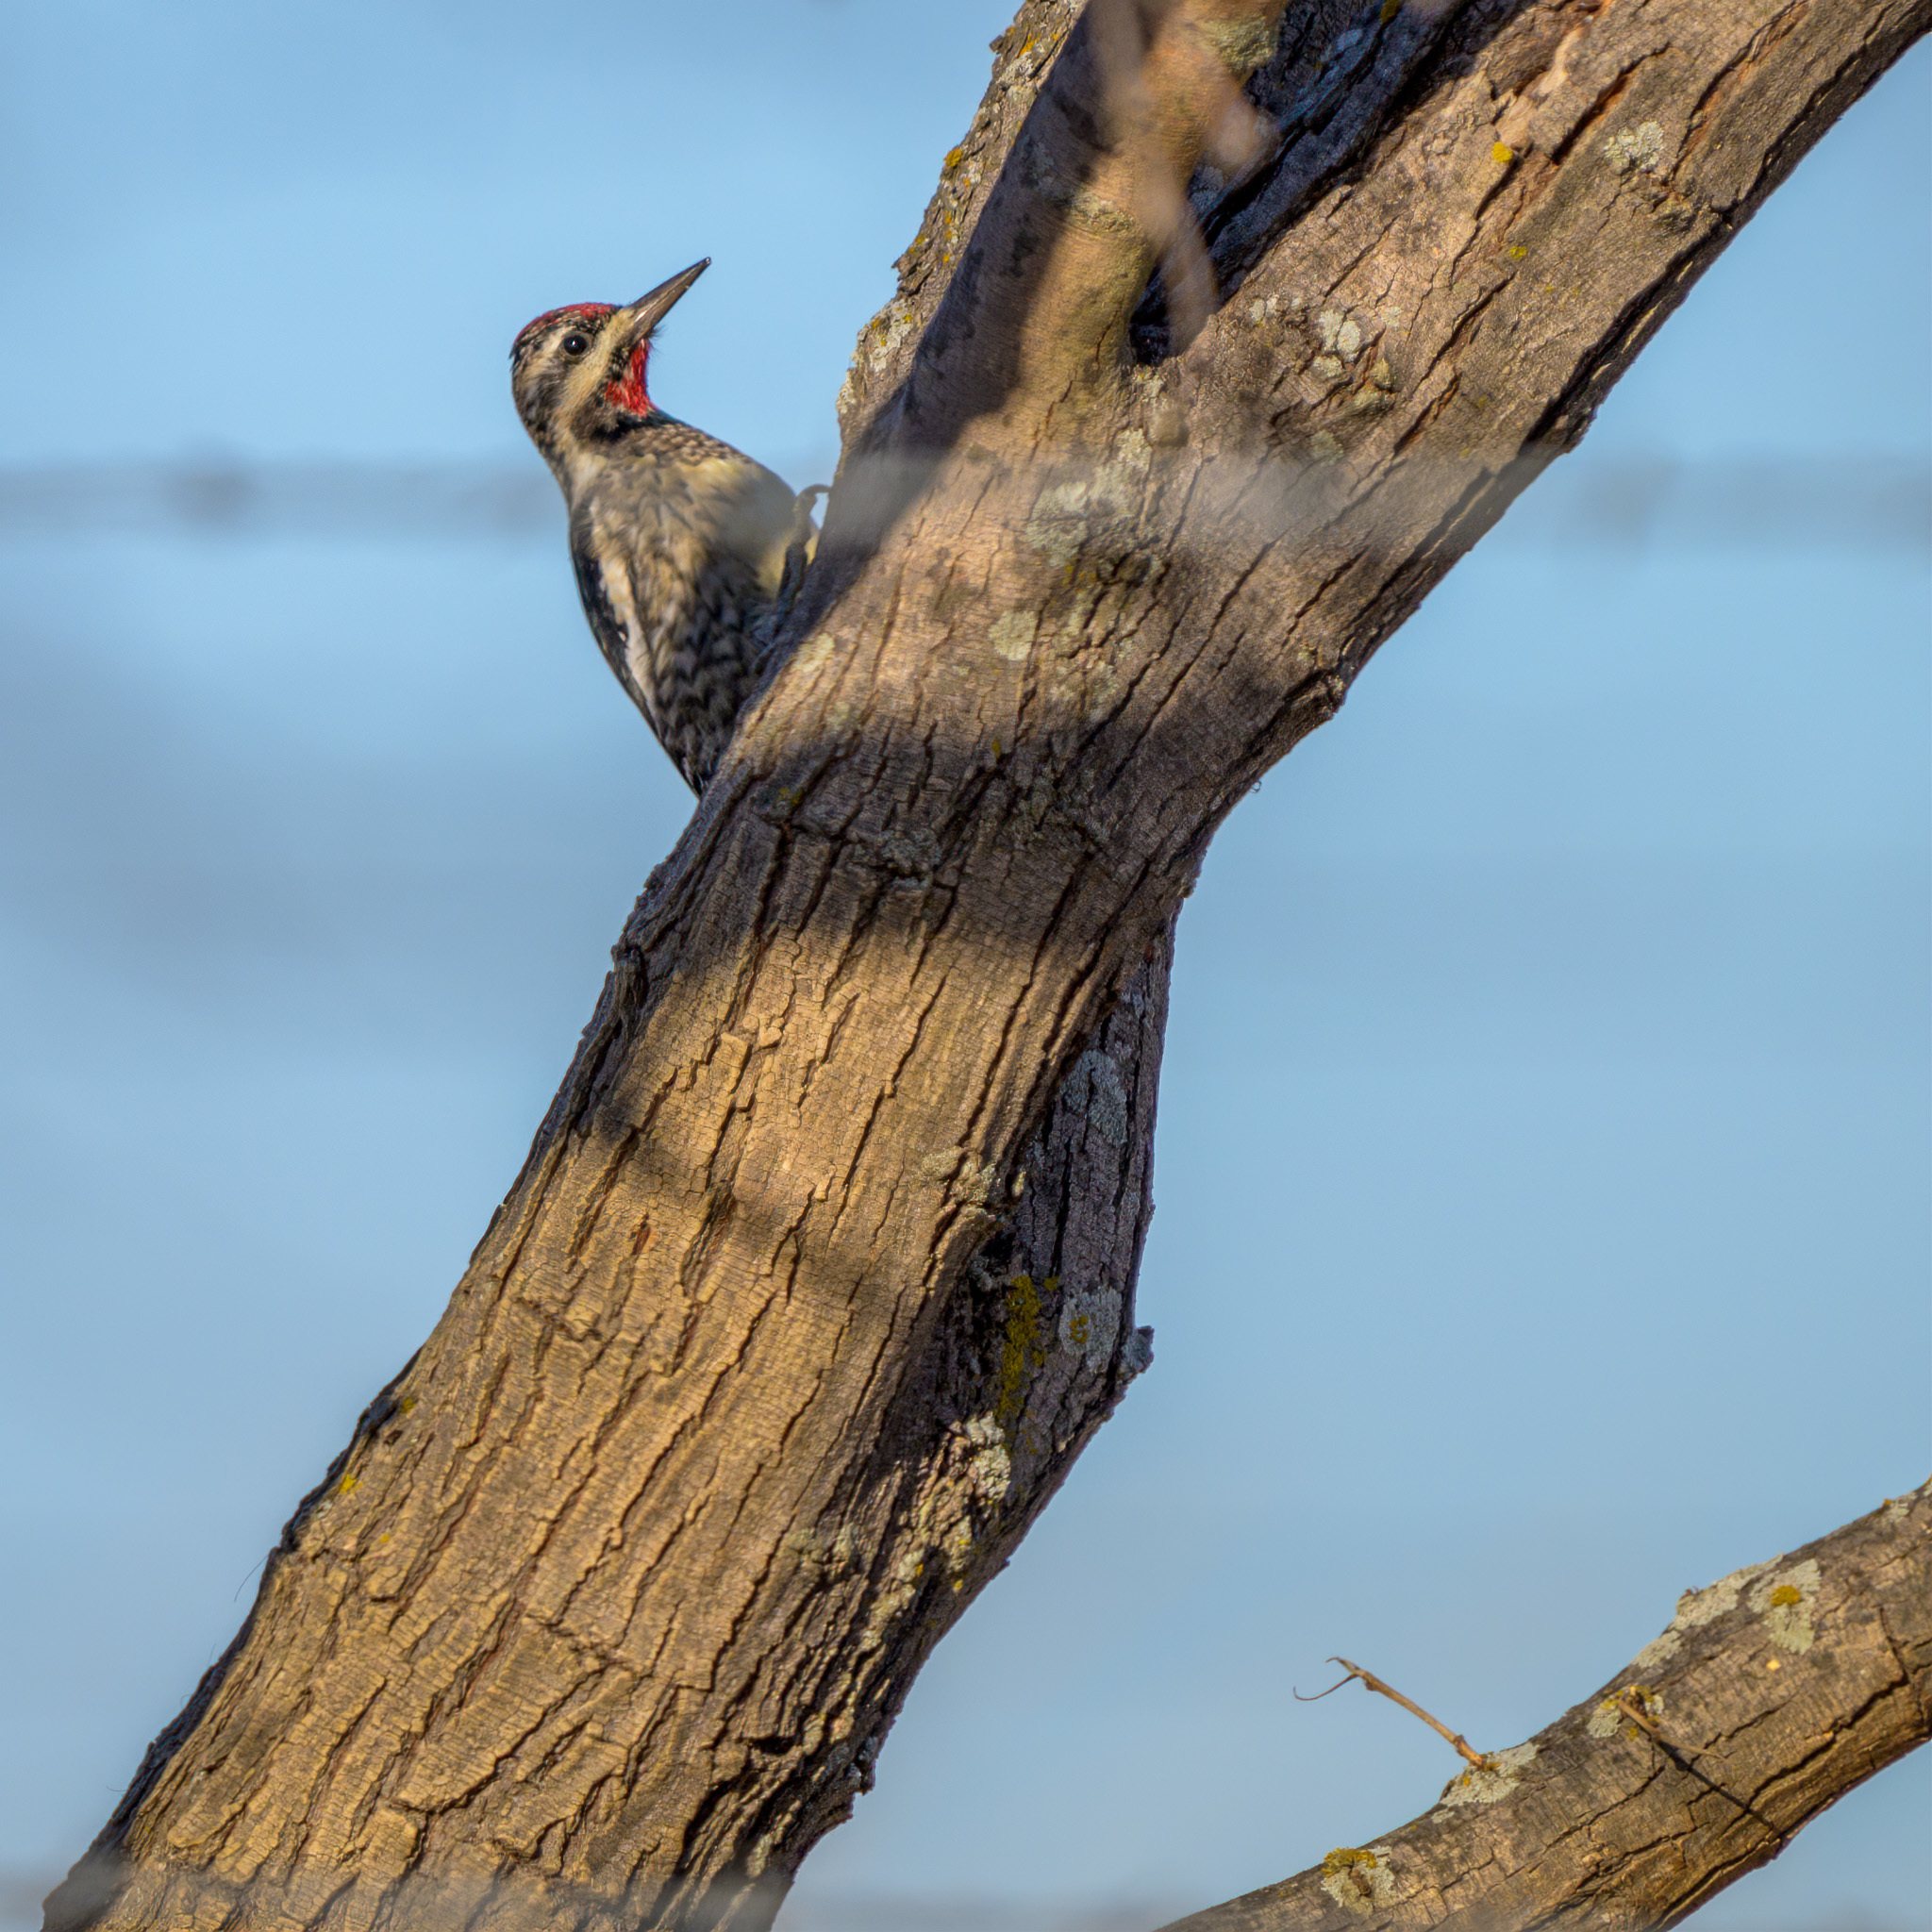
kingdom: Animalia
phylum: Chordata
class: Aves
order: Piciformes
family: Picidae
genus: Sphyrapicus
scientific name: Sphyrapicus varius
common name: Yellow-bellied sapsucker
